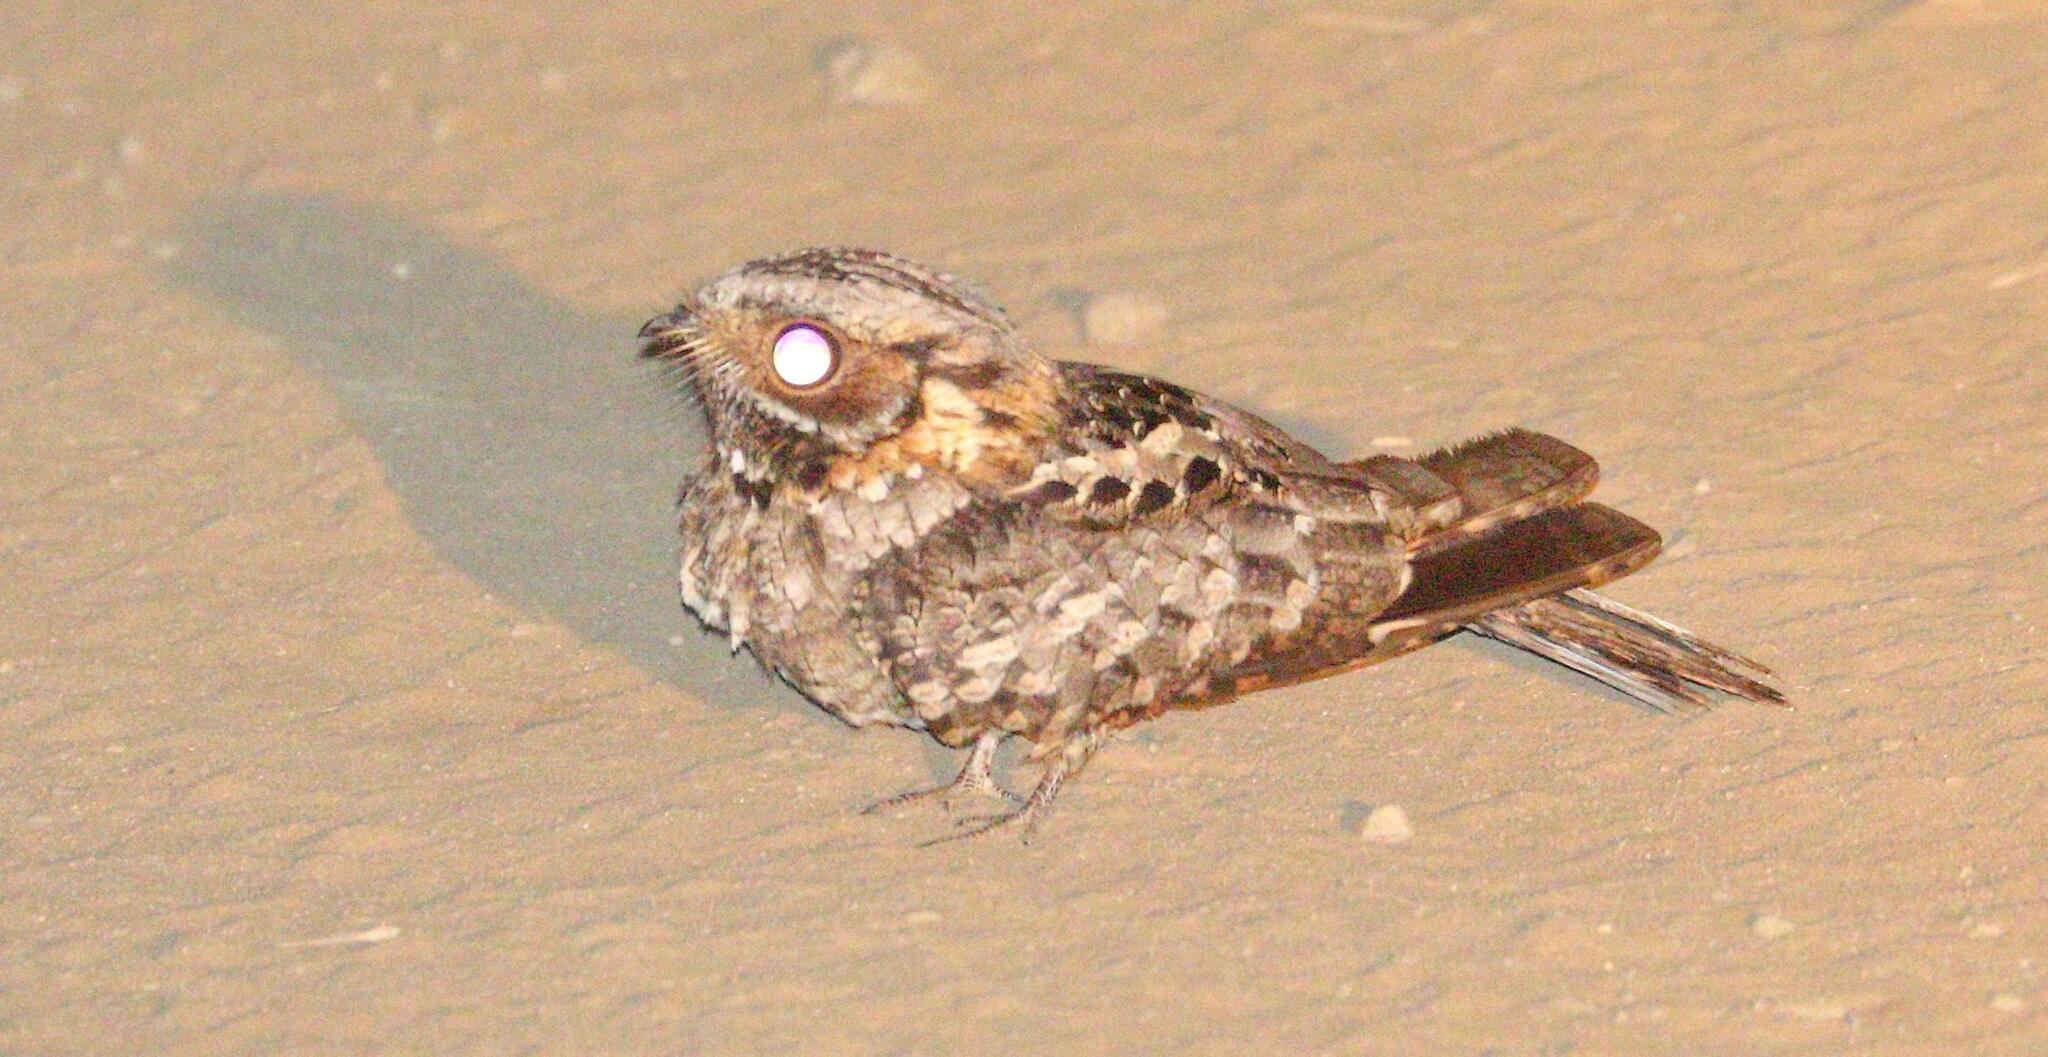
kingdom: Animalia
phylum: Chordata
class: Aves
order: Caprimulgiformes
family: Caprimulgidae
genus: Caprimulgus
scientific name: Caprimulgus pectoralis
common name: Fiery-necked nightjar
